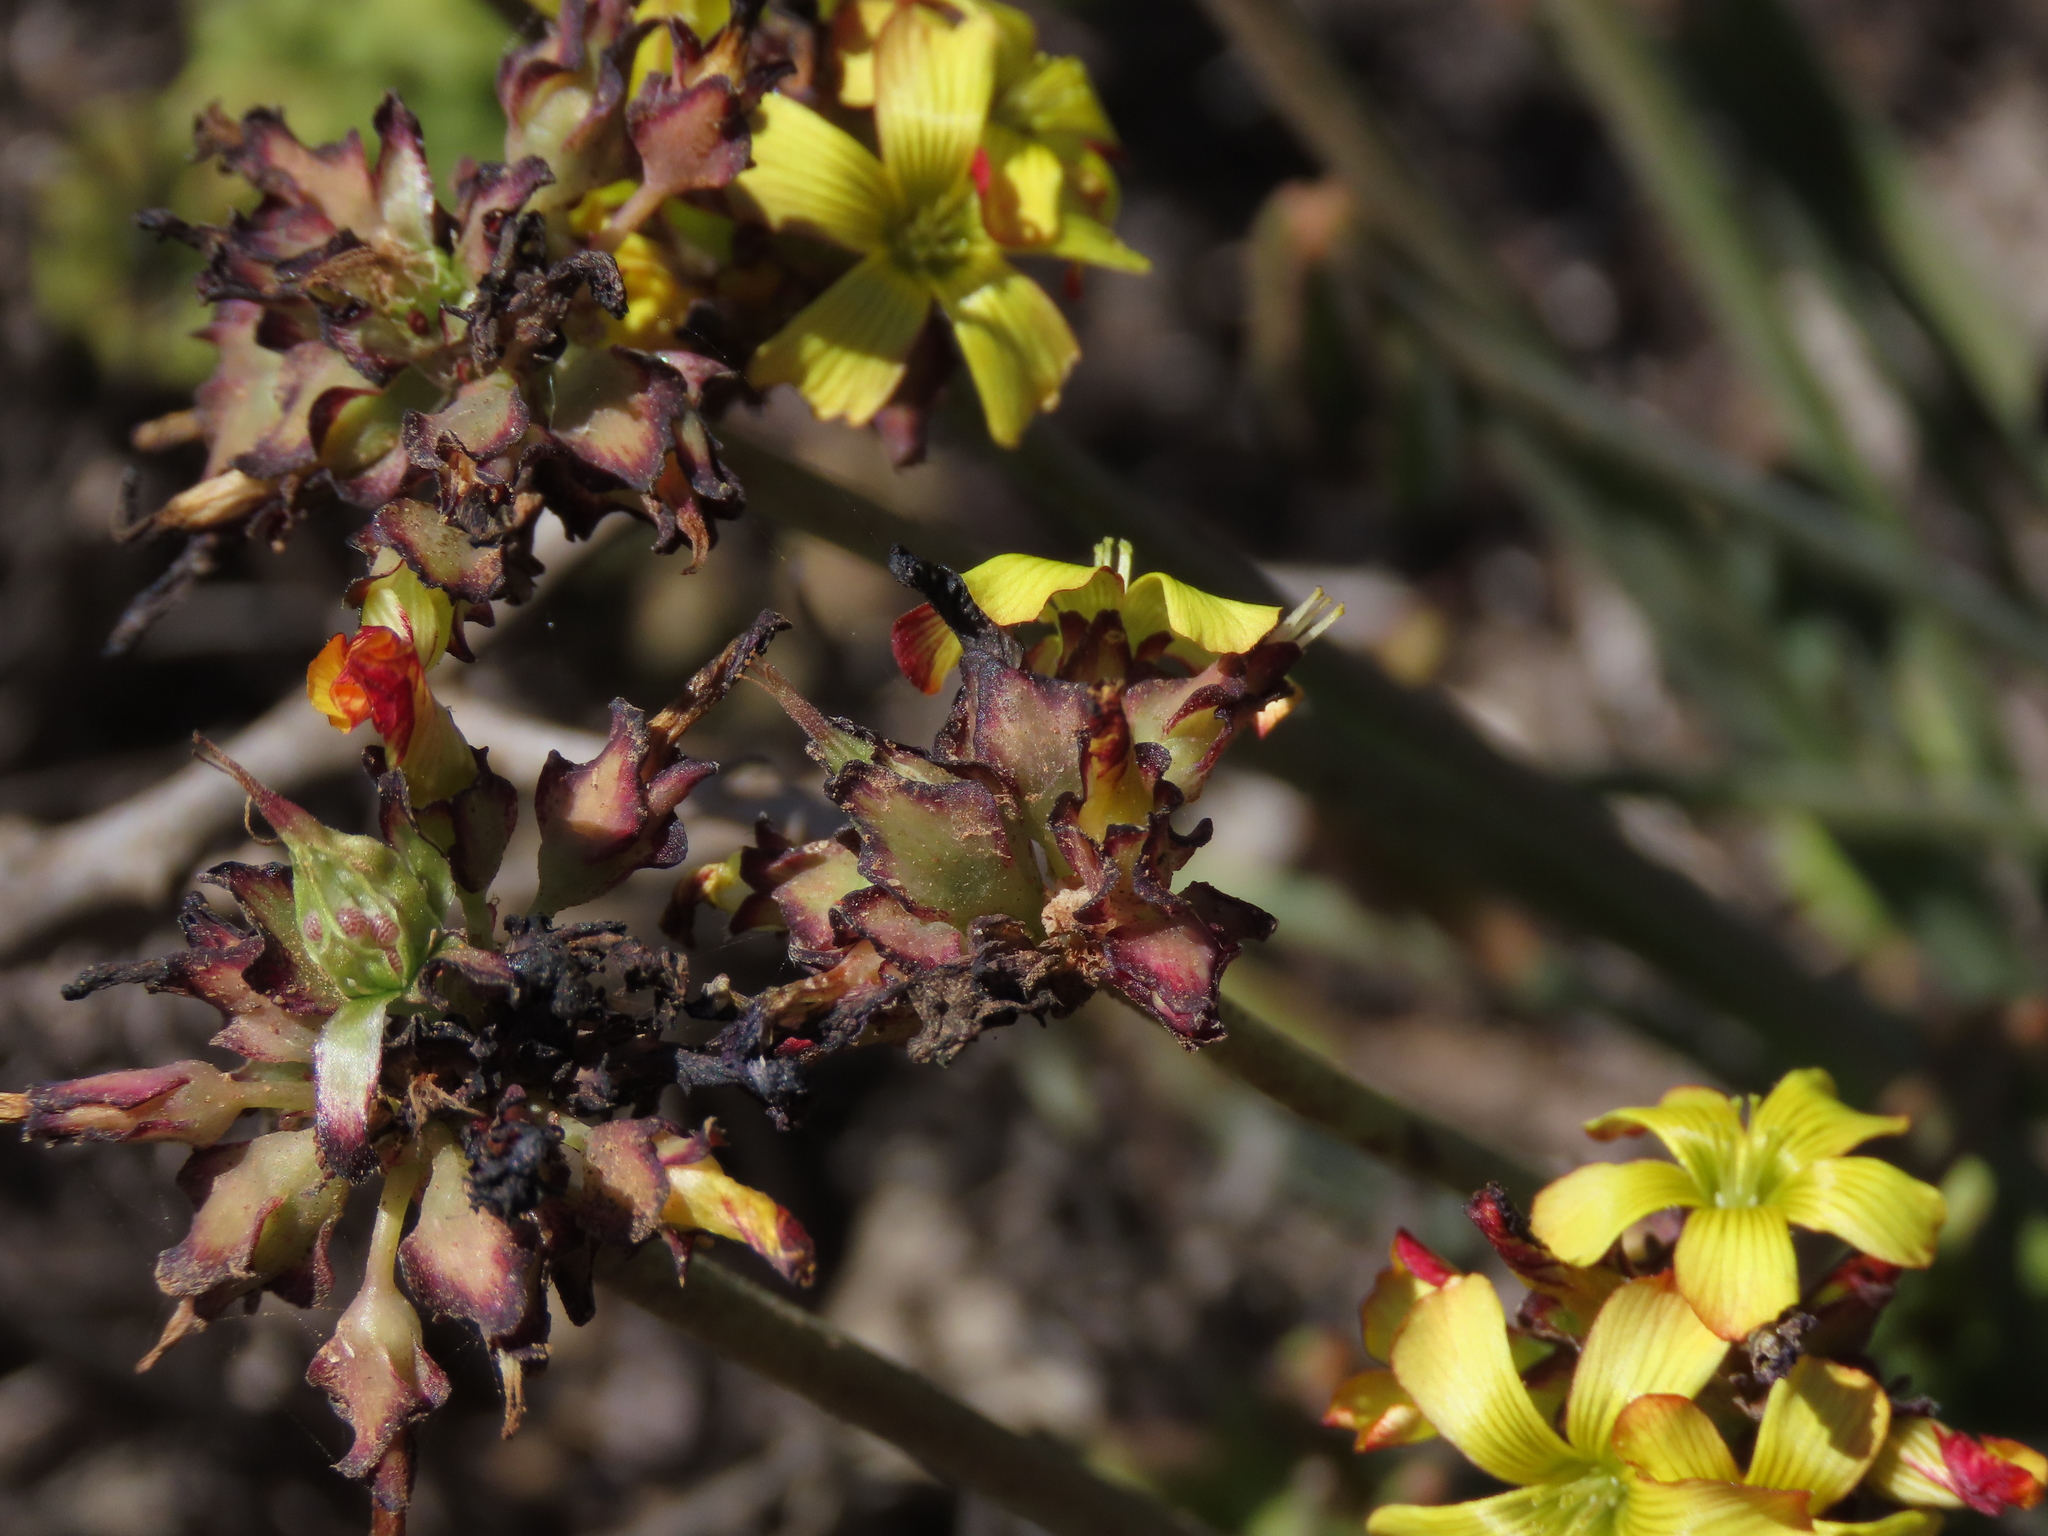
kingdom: Plantae
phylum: Tracheophyta
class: Magnoliopsida
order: Oxalidales
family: Oxalidaceae
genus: Oxalis
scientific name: Oxalis tortuosa
